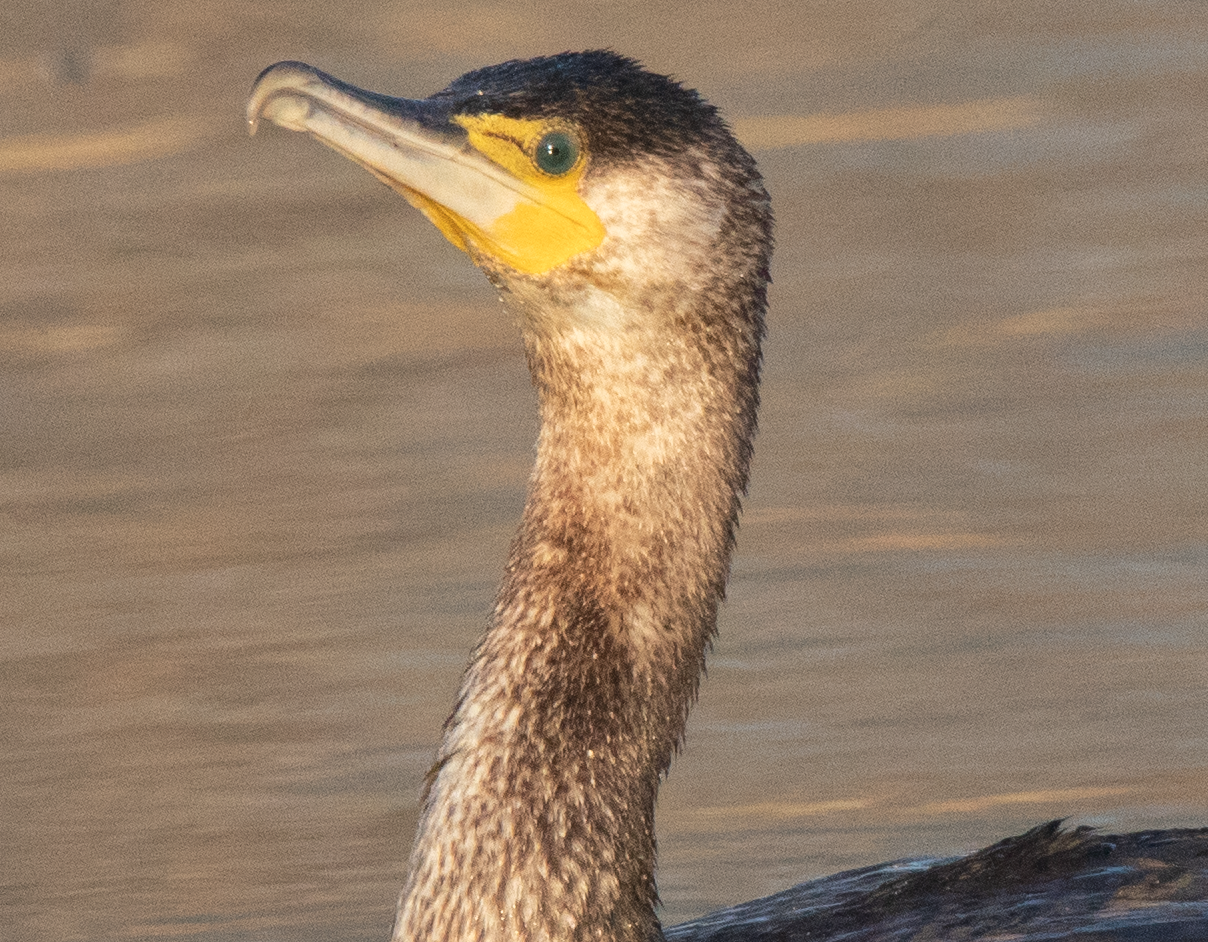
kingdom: Animalia
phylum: Chordata
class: Aves
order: Suliformes
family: Phalacrocoracidae
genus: Phalacrocorax
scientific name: Phalacrocorax carbo
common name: Great cormorant
